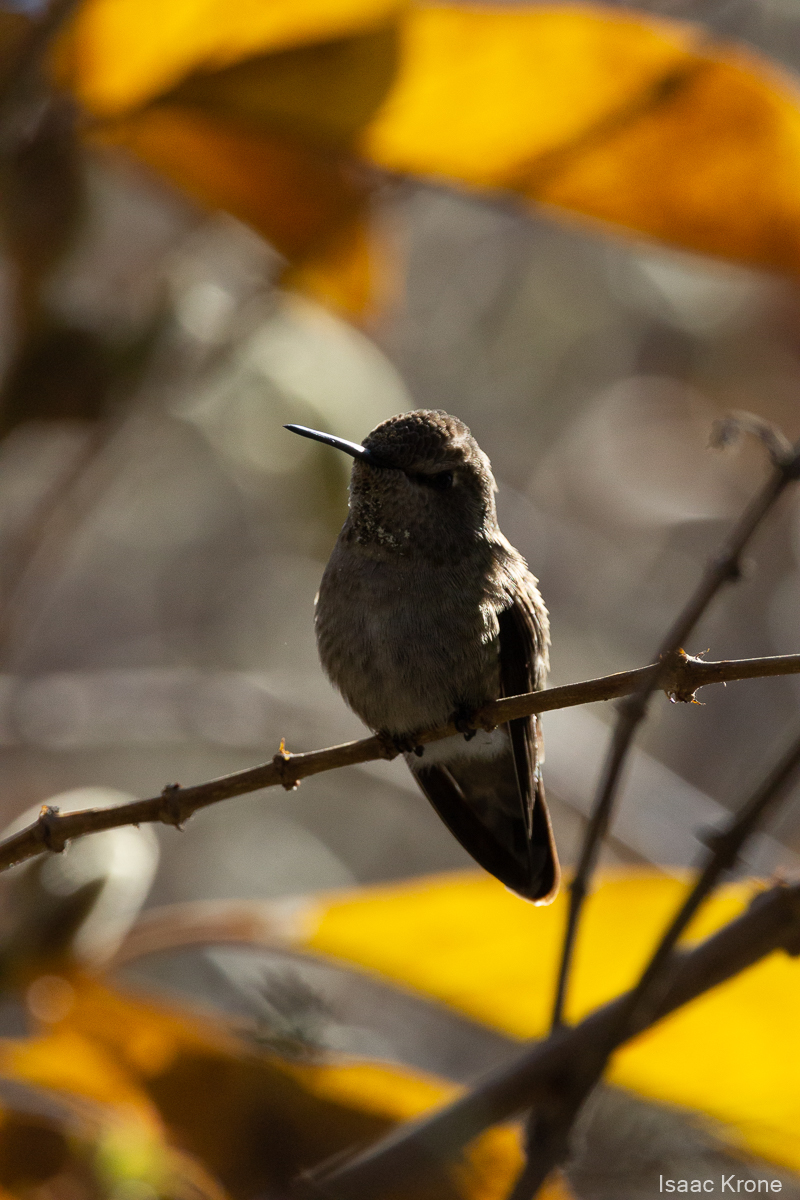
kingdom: Animalia
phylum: Chordata
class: Aves
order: Apodiformes
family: Trochilidae
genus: Calypte
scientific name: Calypte anna
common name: Anna's hummingbird
